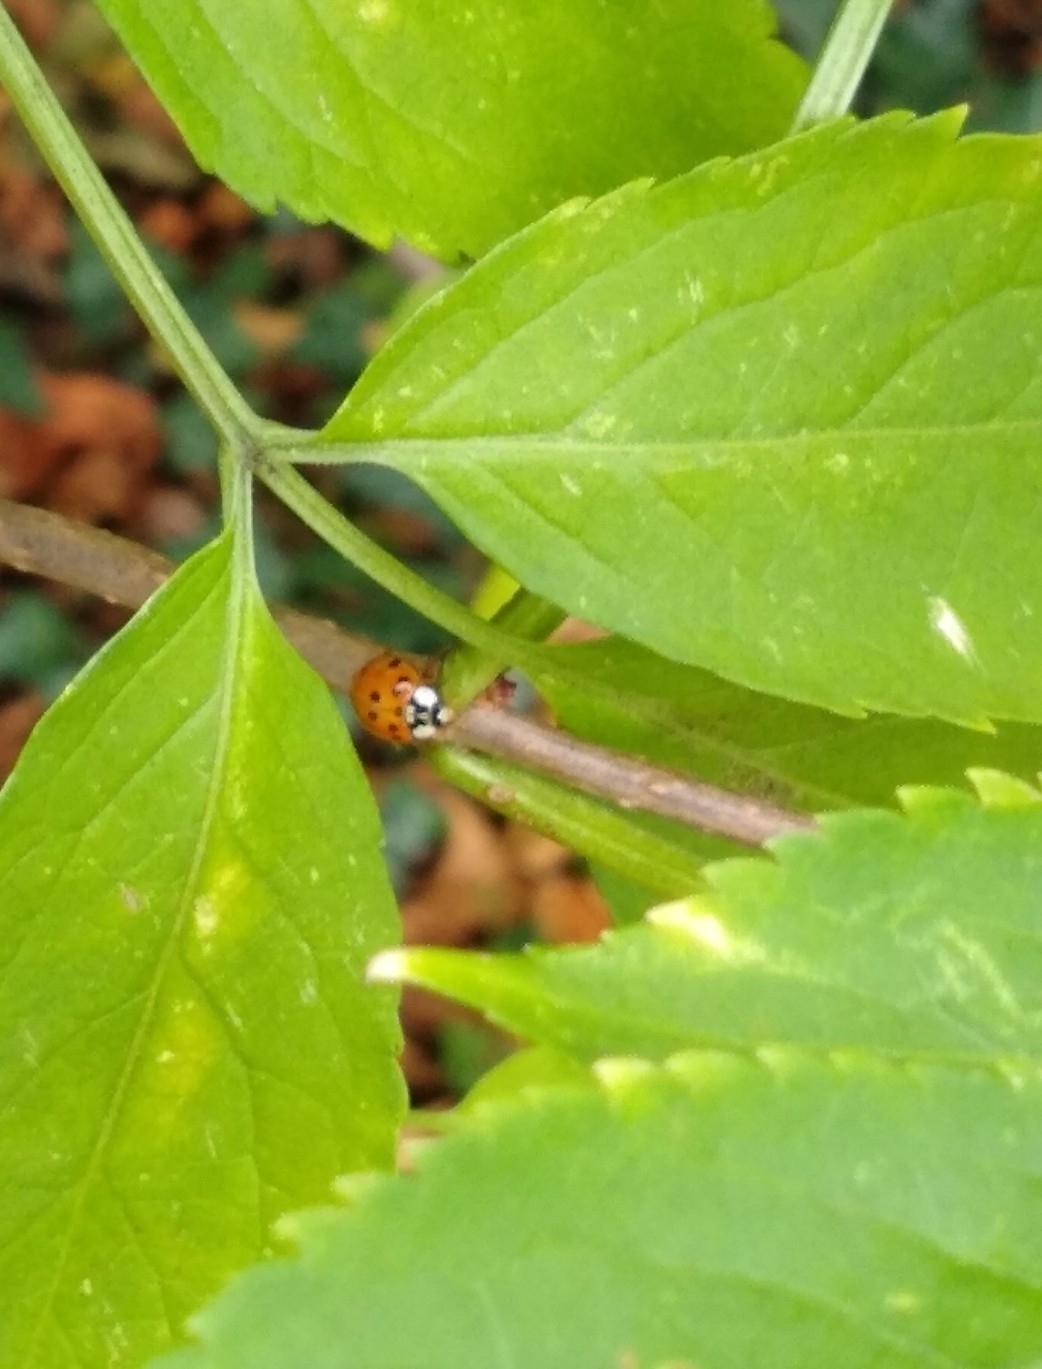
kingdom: Animalia
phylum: Arthropoda
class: Insecta
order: Coleoptera
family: Coccinellidae
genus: Harmonia
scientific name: Harmonia axyridis
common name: Harlequin ladybird
